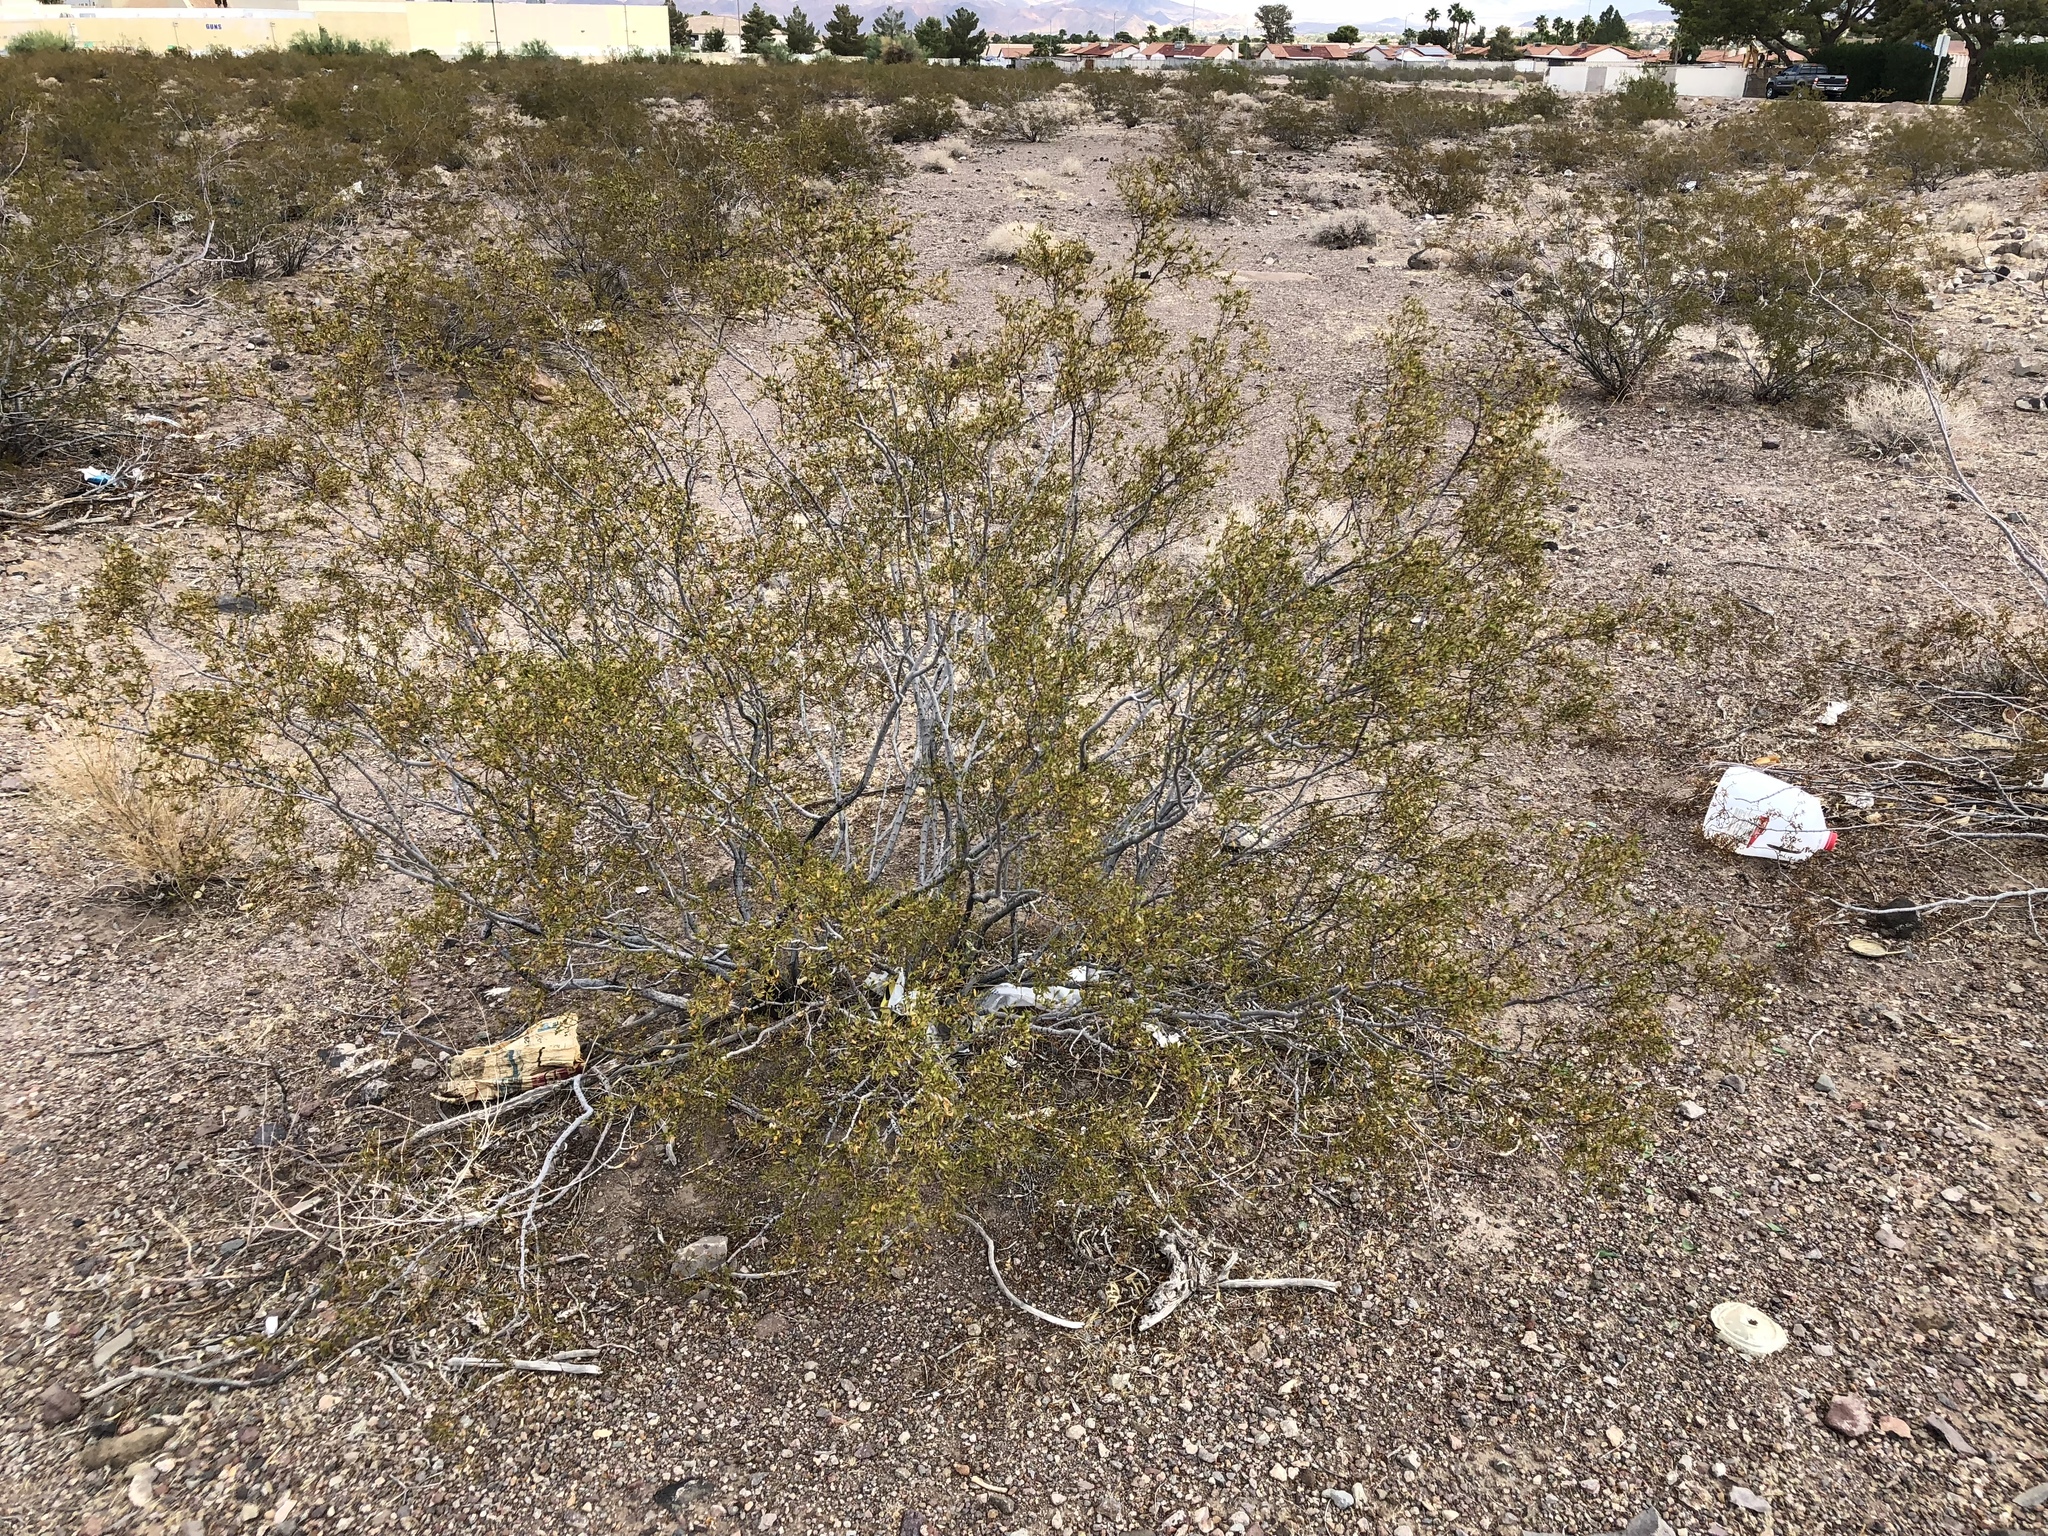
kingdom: Plantae
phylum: Tracheophyta
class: Magnoliopsida
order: Zygophyllales
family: Zygophyllaceae
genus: Larrea
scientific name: Larrea tridentata
